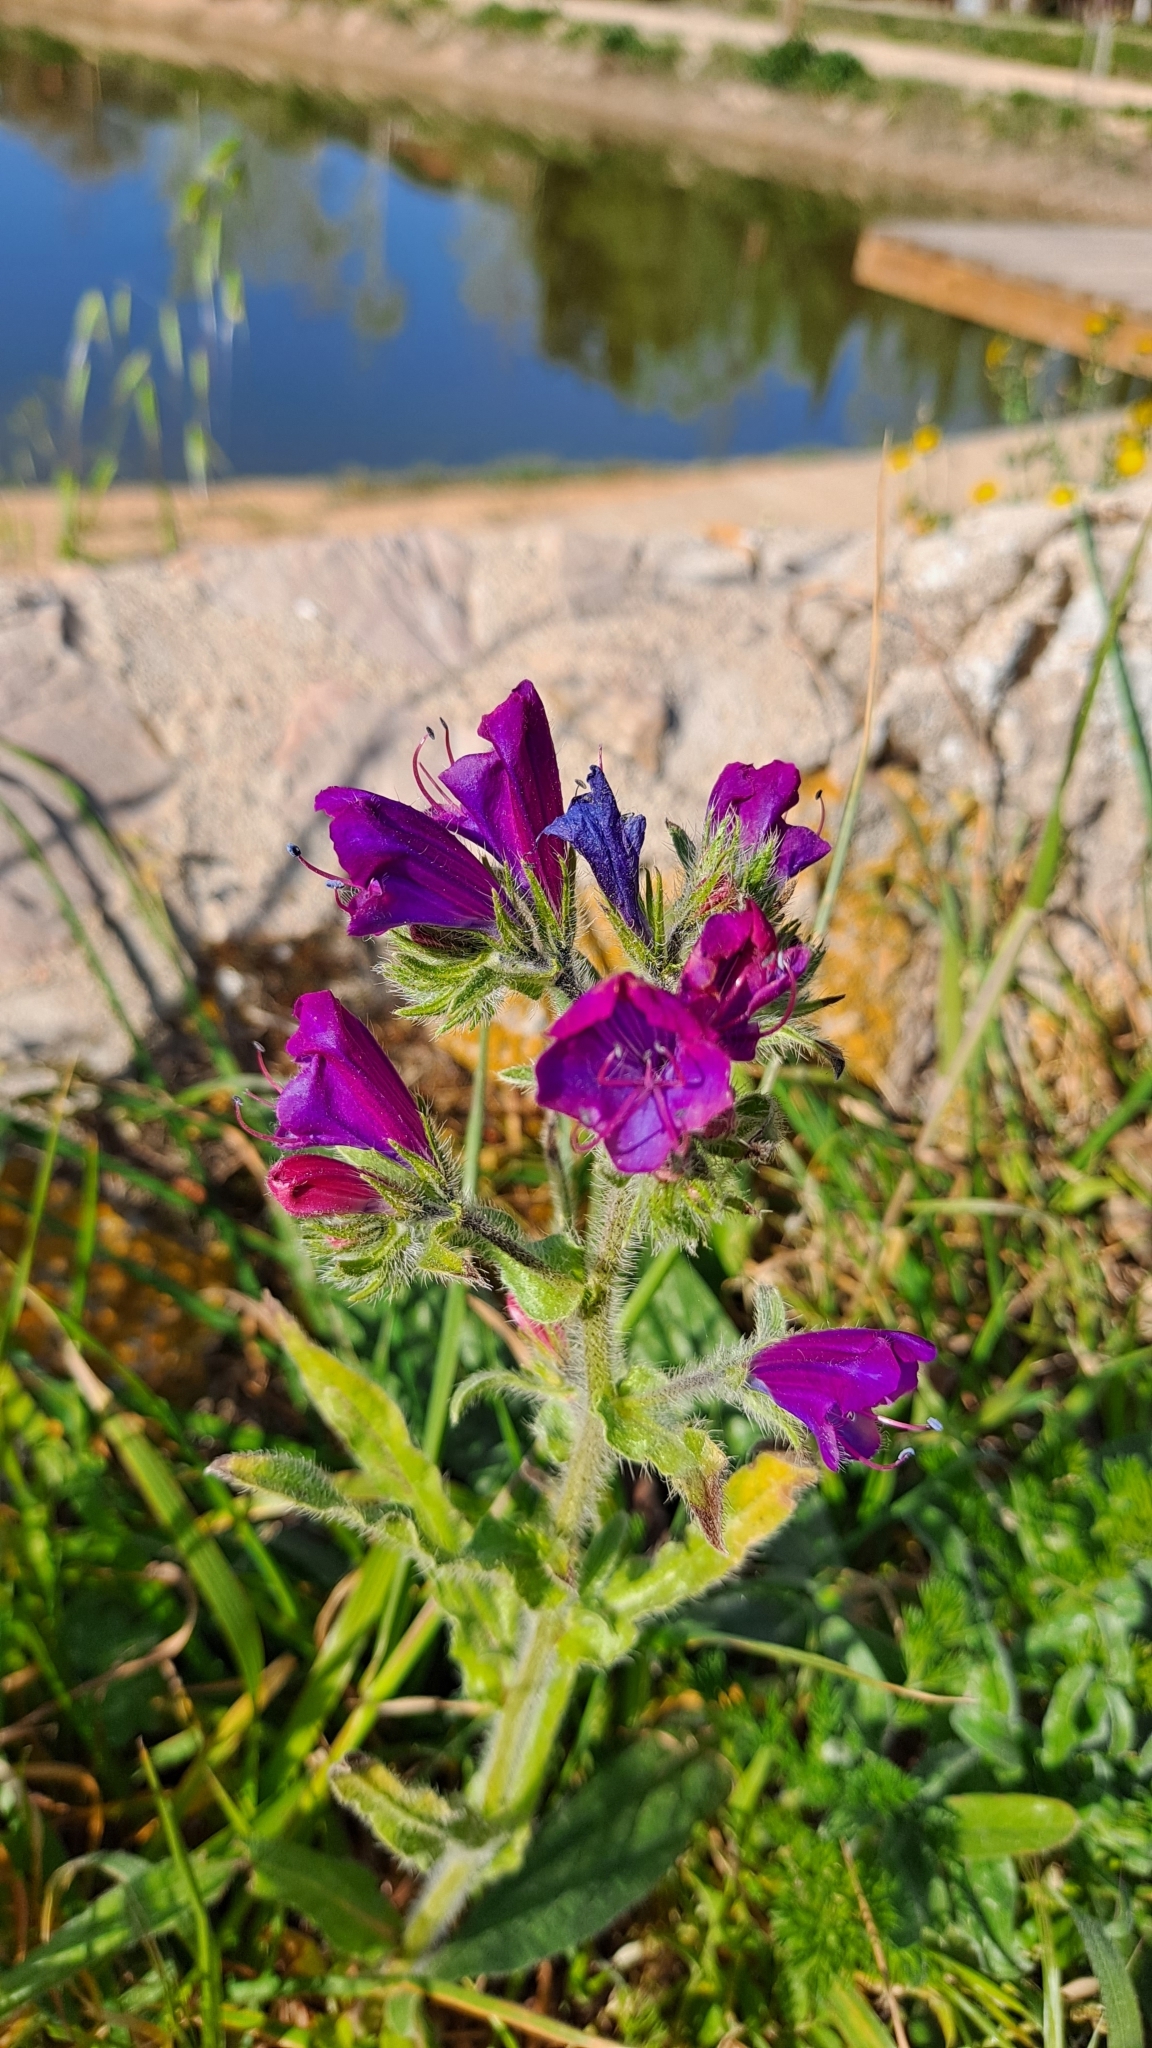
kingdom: Plantae
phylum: Tracheophyta
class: Magnoliopsida
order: Boraginales
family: Boraginaceae
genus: Echium
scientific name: Echium plantagineum
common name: Purple viper's-bugloss
